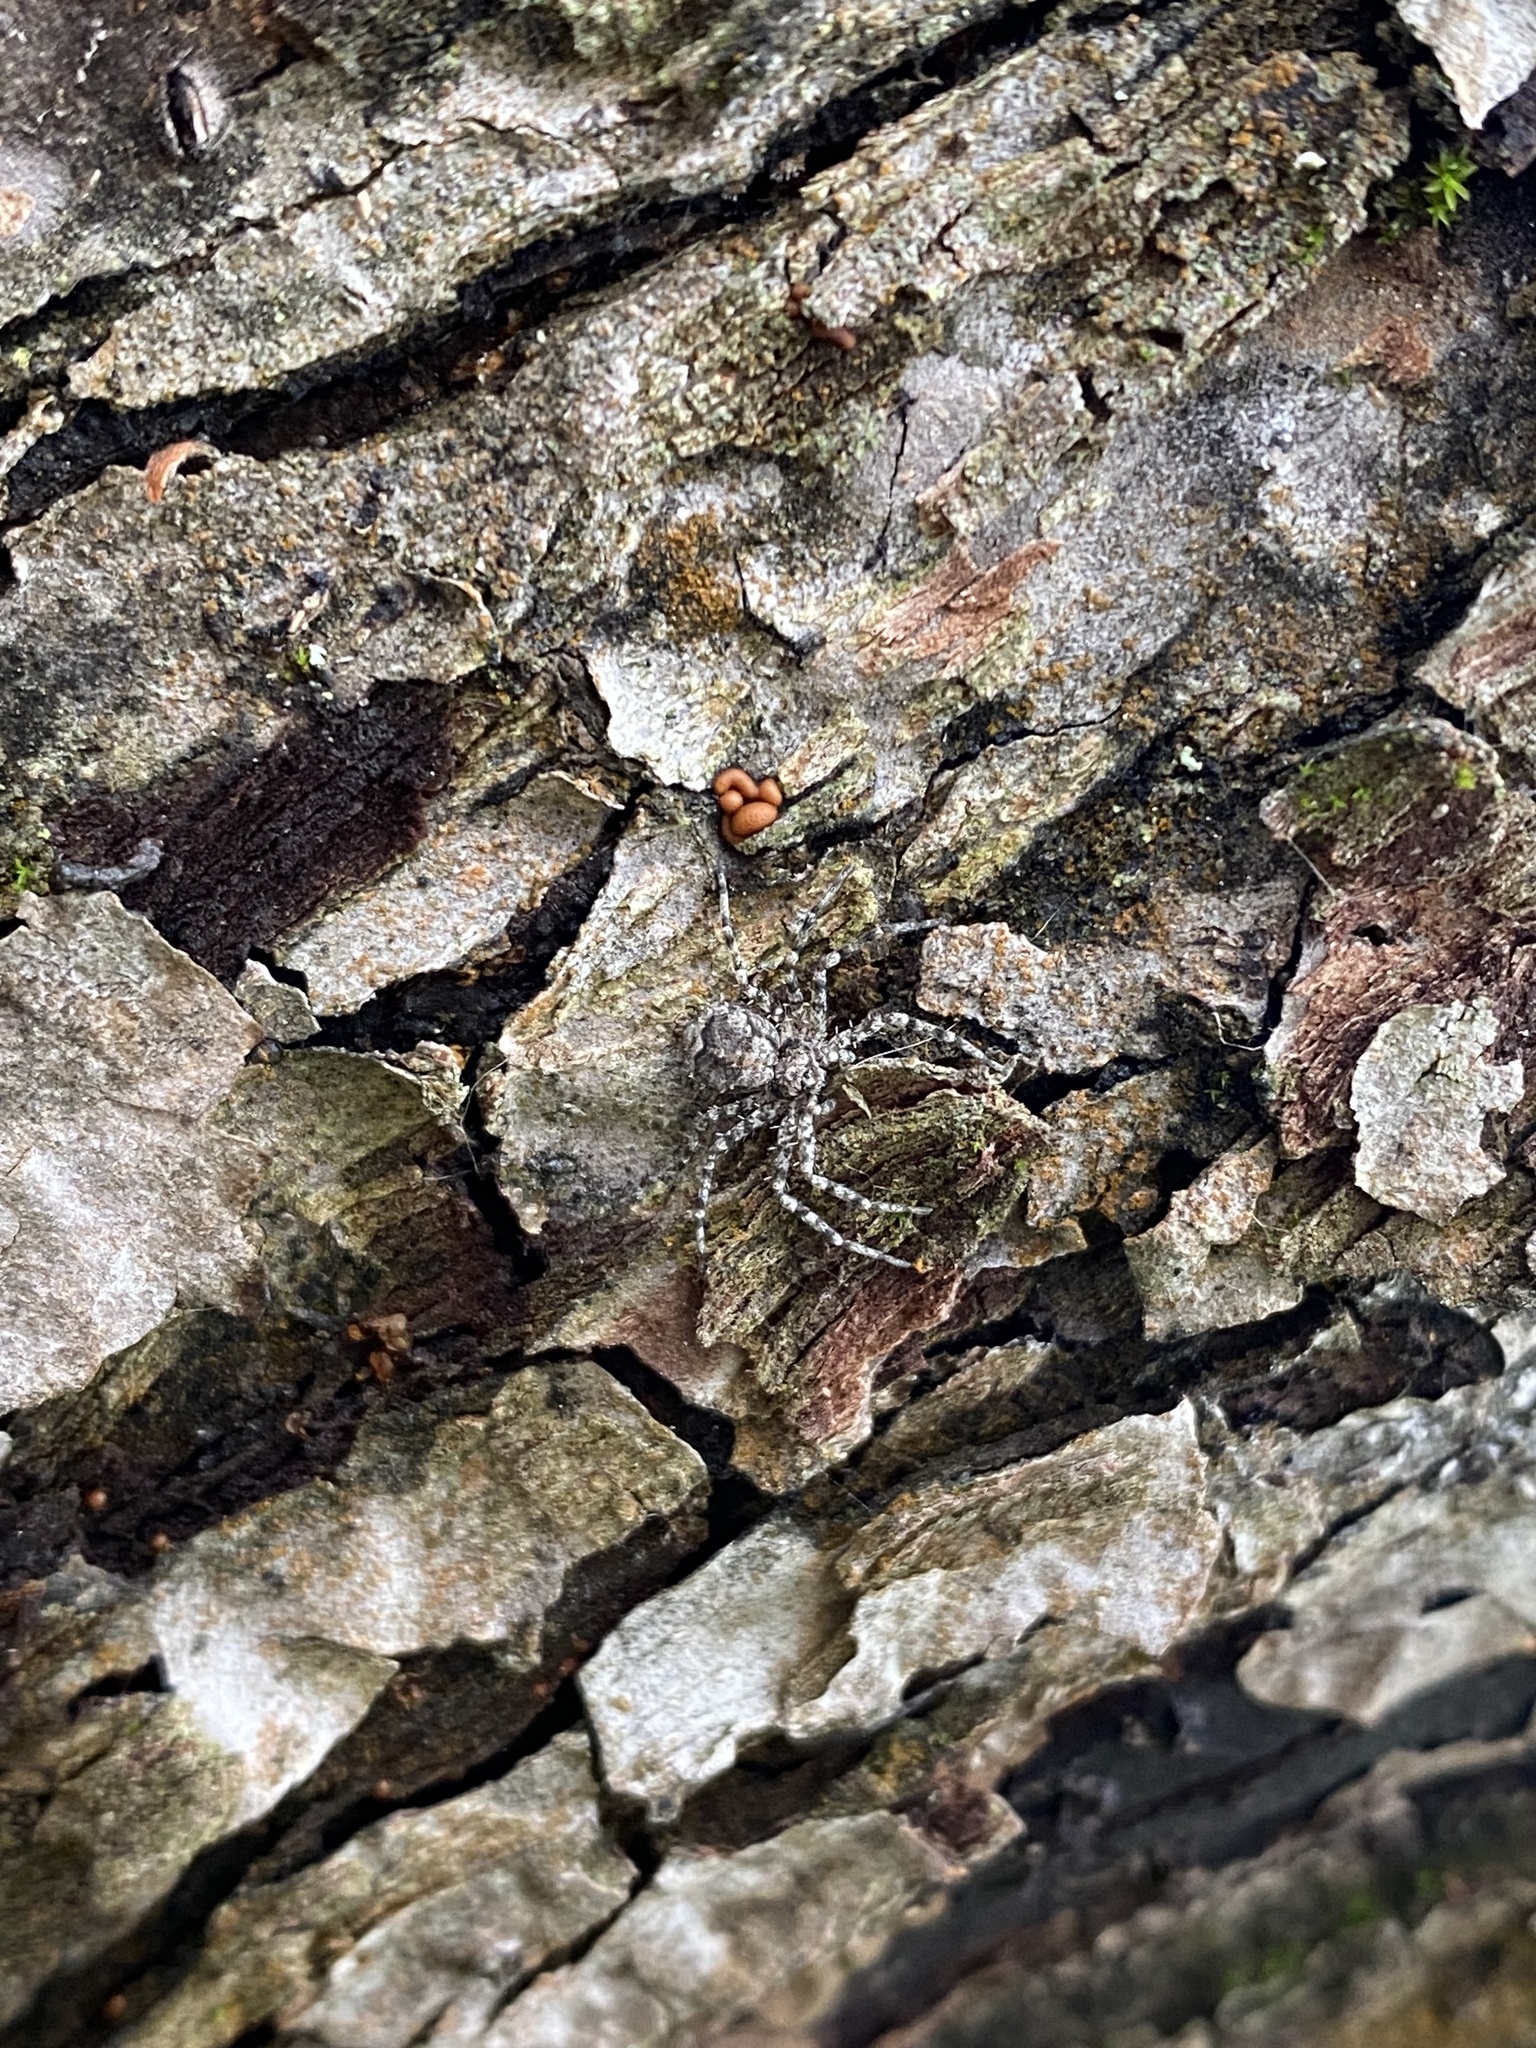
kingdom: Animalia
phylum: Arthropoda
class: Arachnida
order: Araneae
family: Philodromidae
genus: Philodromus
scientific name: Philodromus poecilus
